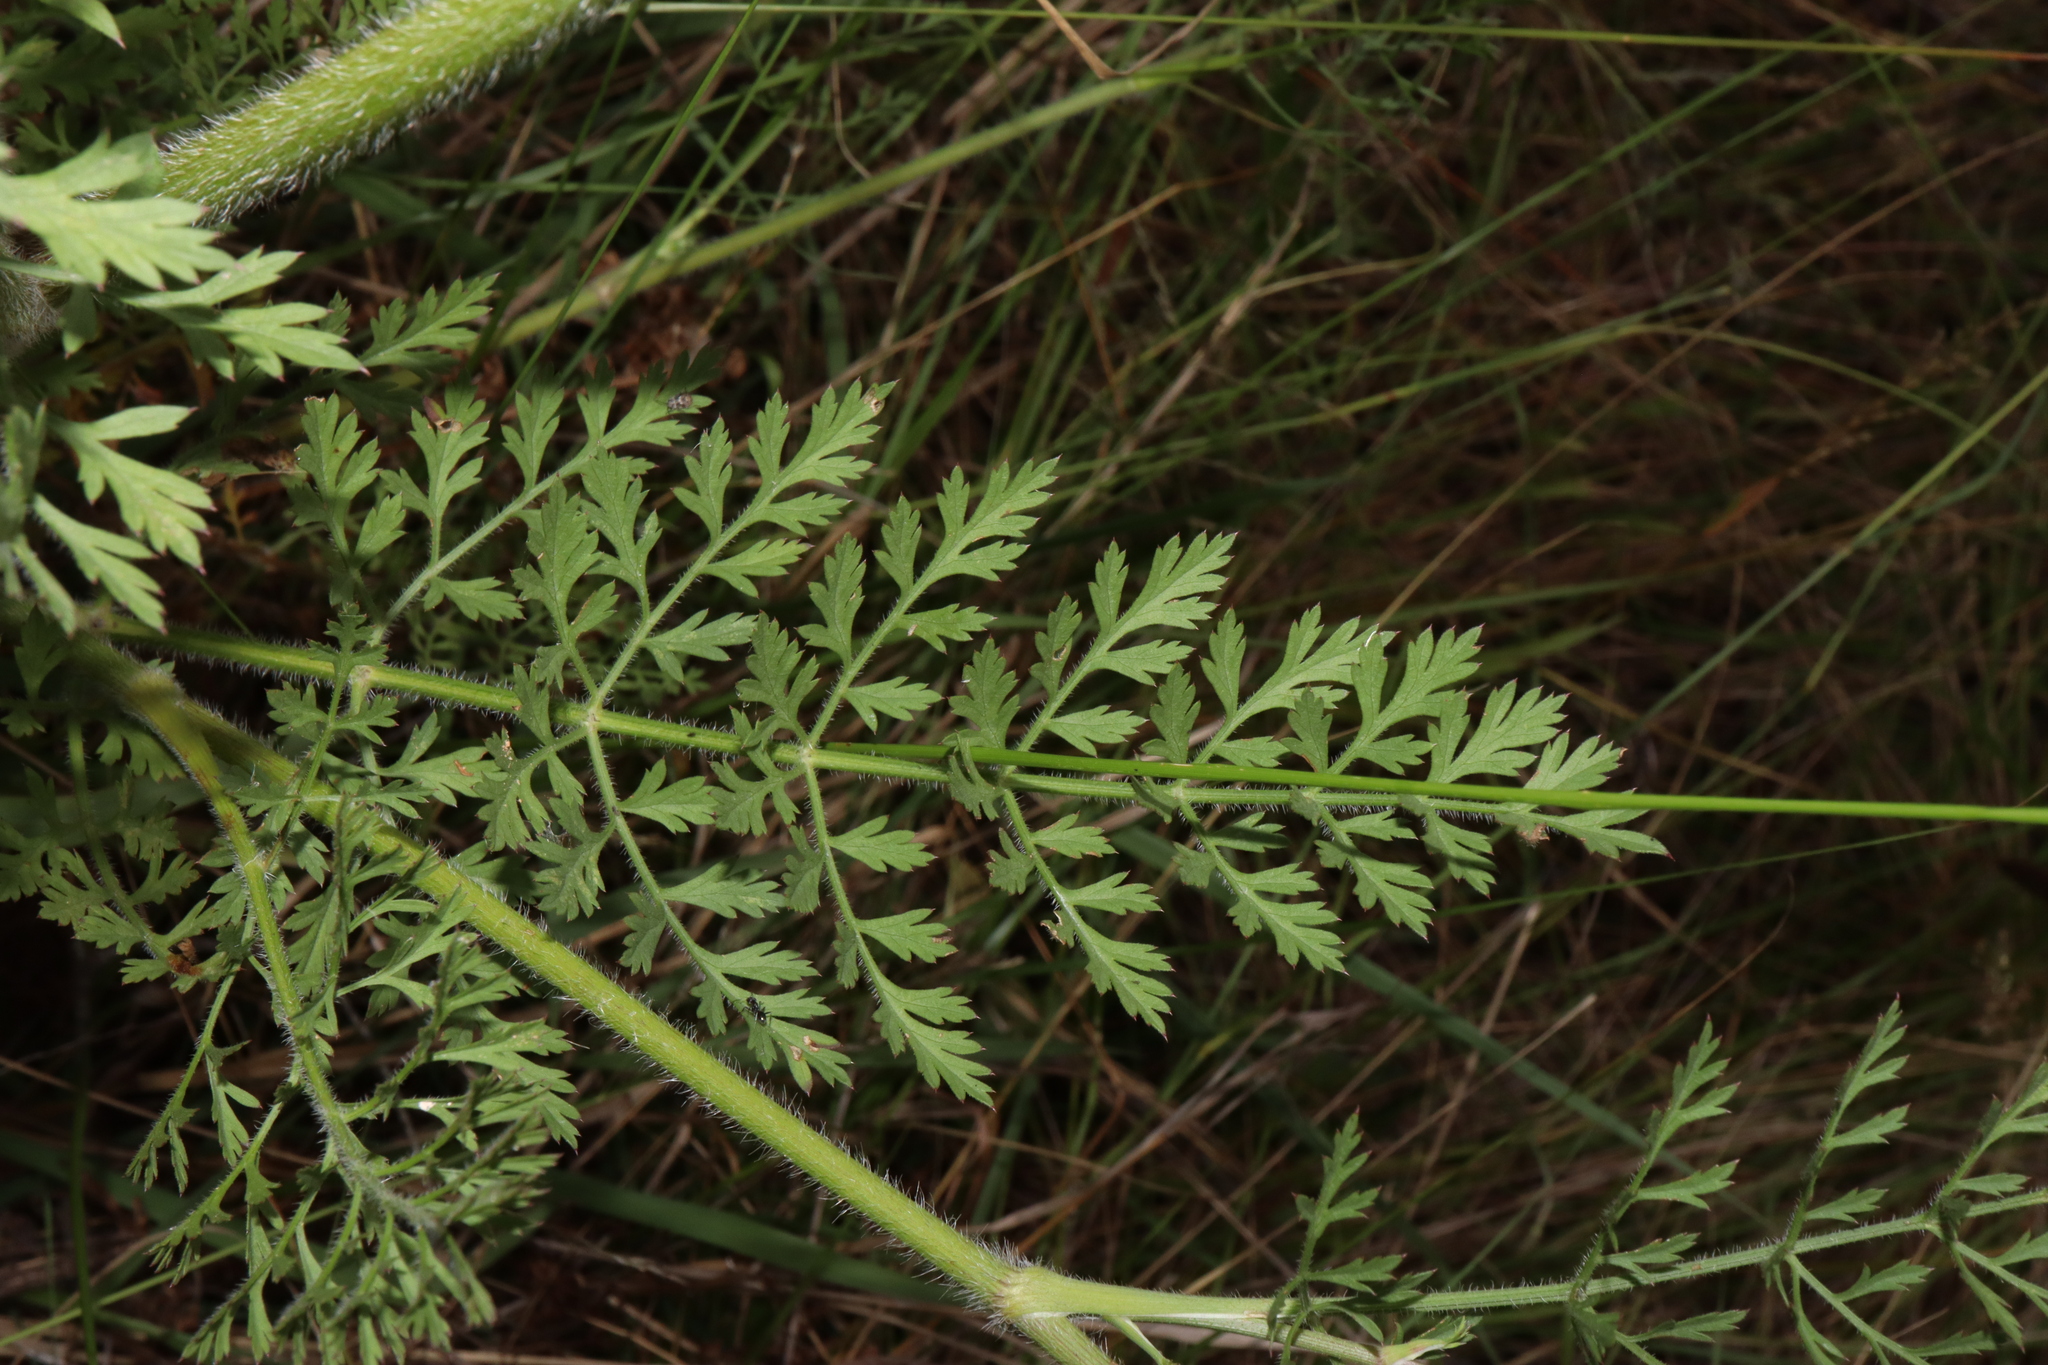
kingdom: Plantae
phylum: Tracheophyta
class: Magnoliopsida
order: Apiales
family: Apiaceae
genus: Daucus
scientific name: Daucus carota
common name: Wild carrot
